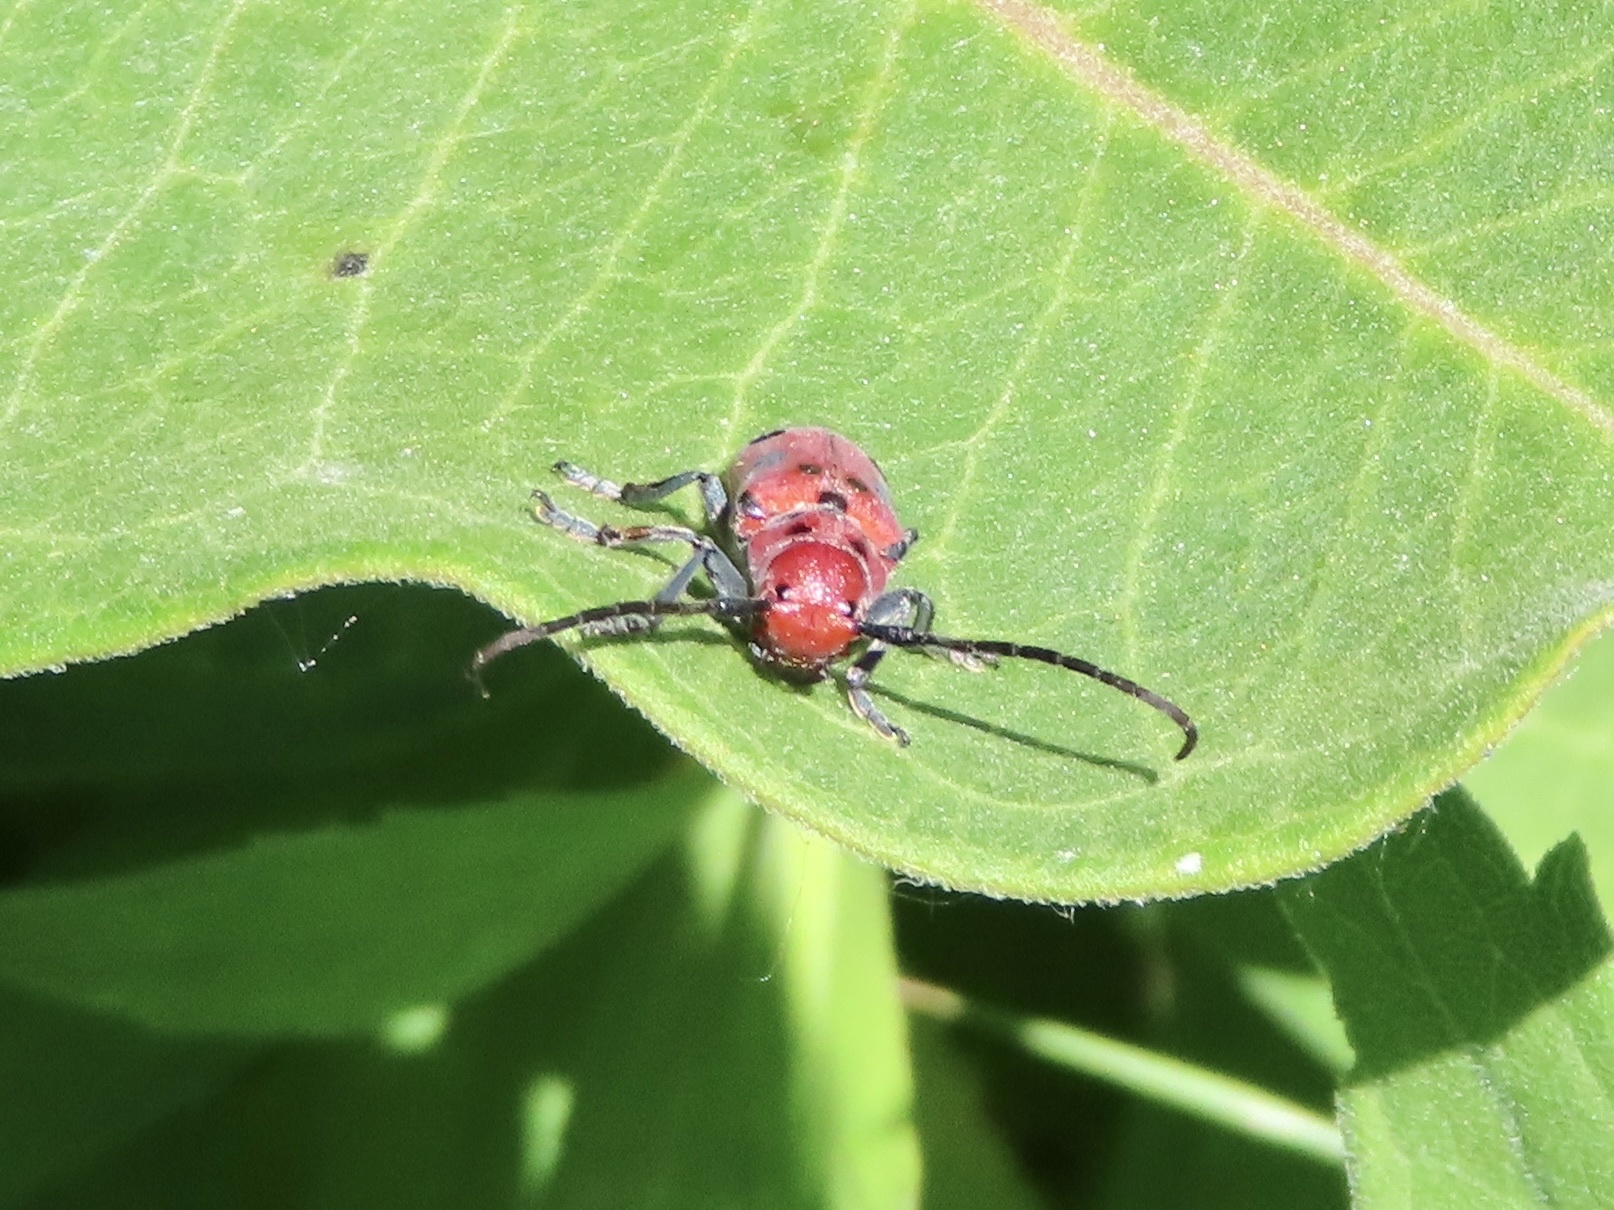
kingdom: Animalia
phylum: Arthropoda
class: Insecta
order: Coleoptera
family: Cerambycidae
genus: Tetraopes
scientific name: Tetraopes tetrophthalmus
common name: Red milkweed beetle
